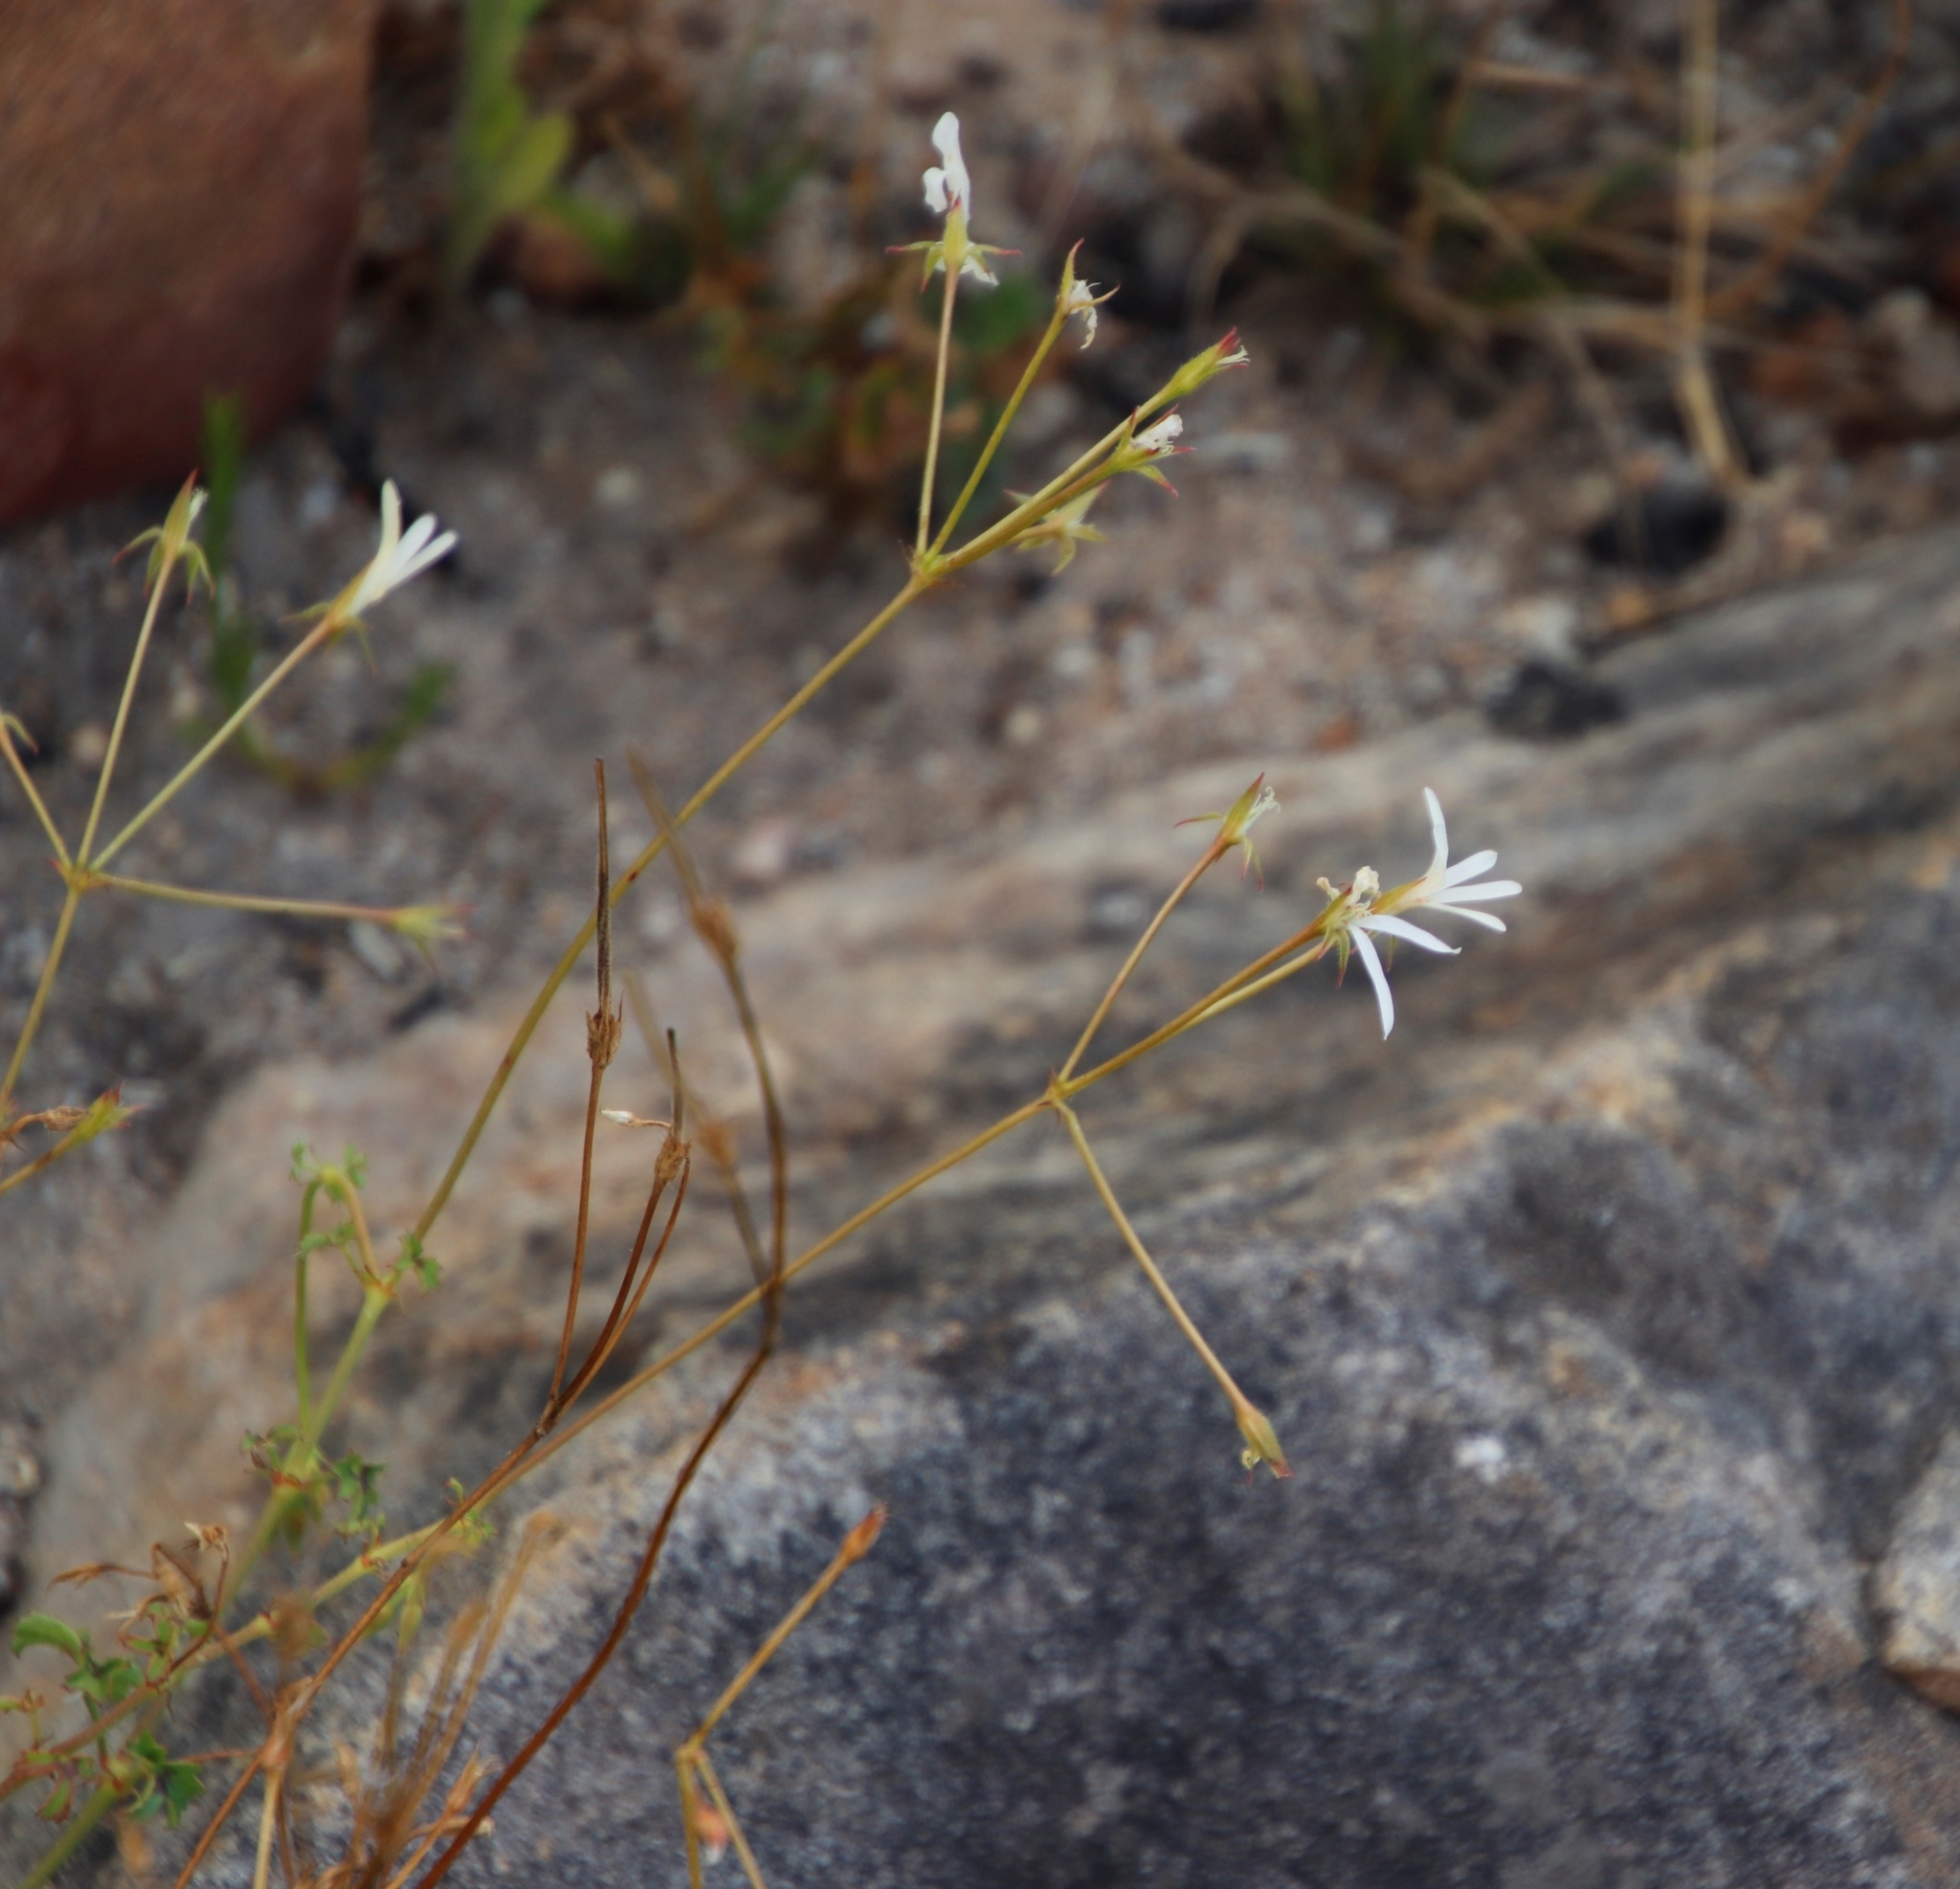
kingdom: Plantae
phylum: Tracheophyta
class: Magnoliopsida
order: Geraniales
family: Geraniaceae
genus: Pelargonium
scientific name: Pelargonium elongatum
